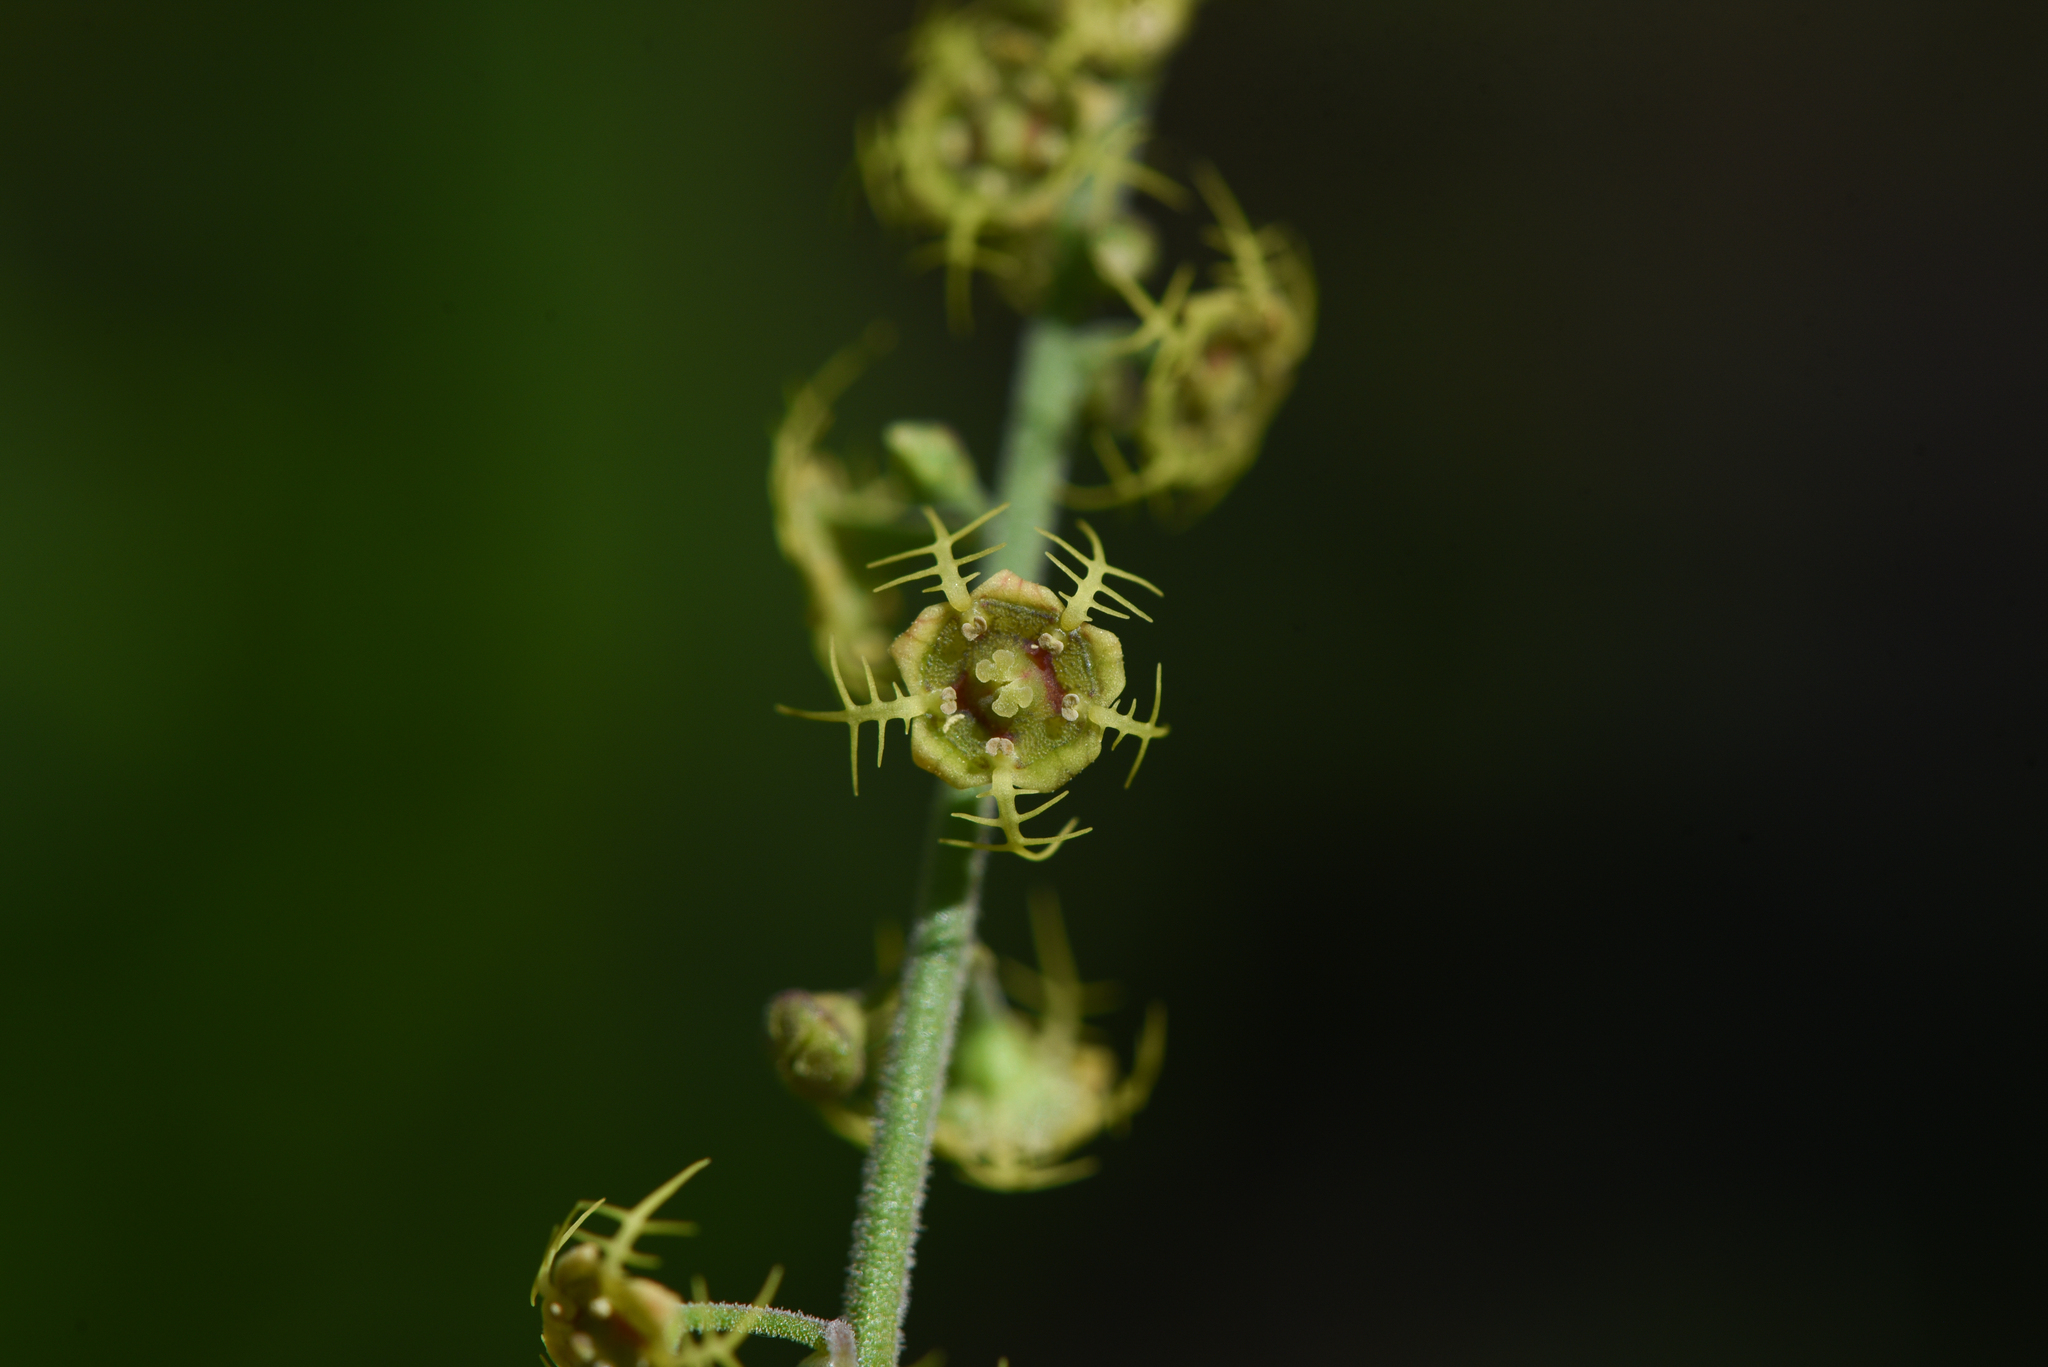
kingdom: Plantae
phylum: Tracheophyta
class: Magnoliopsida
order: Saxifragales
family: Saxifragaceae
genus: Pectiantia
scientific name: Pectiantia pentandra
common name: Alpine bishop's-cap
